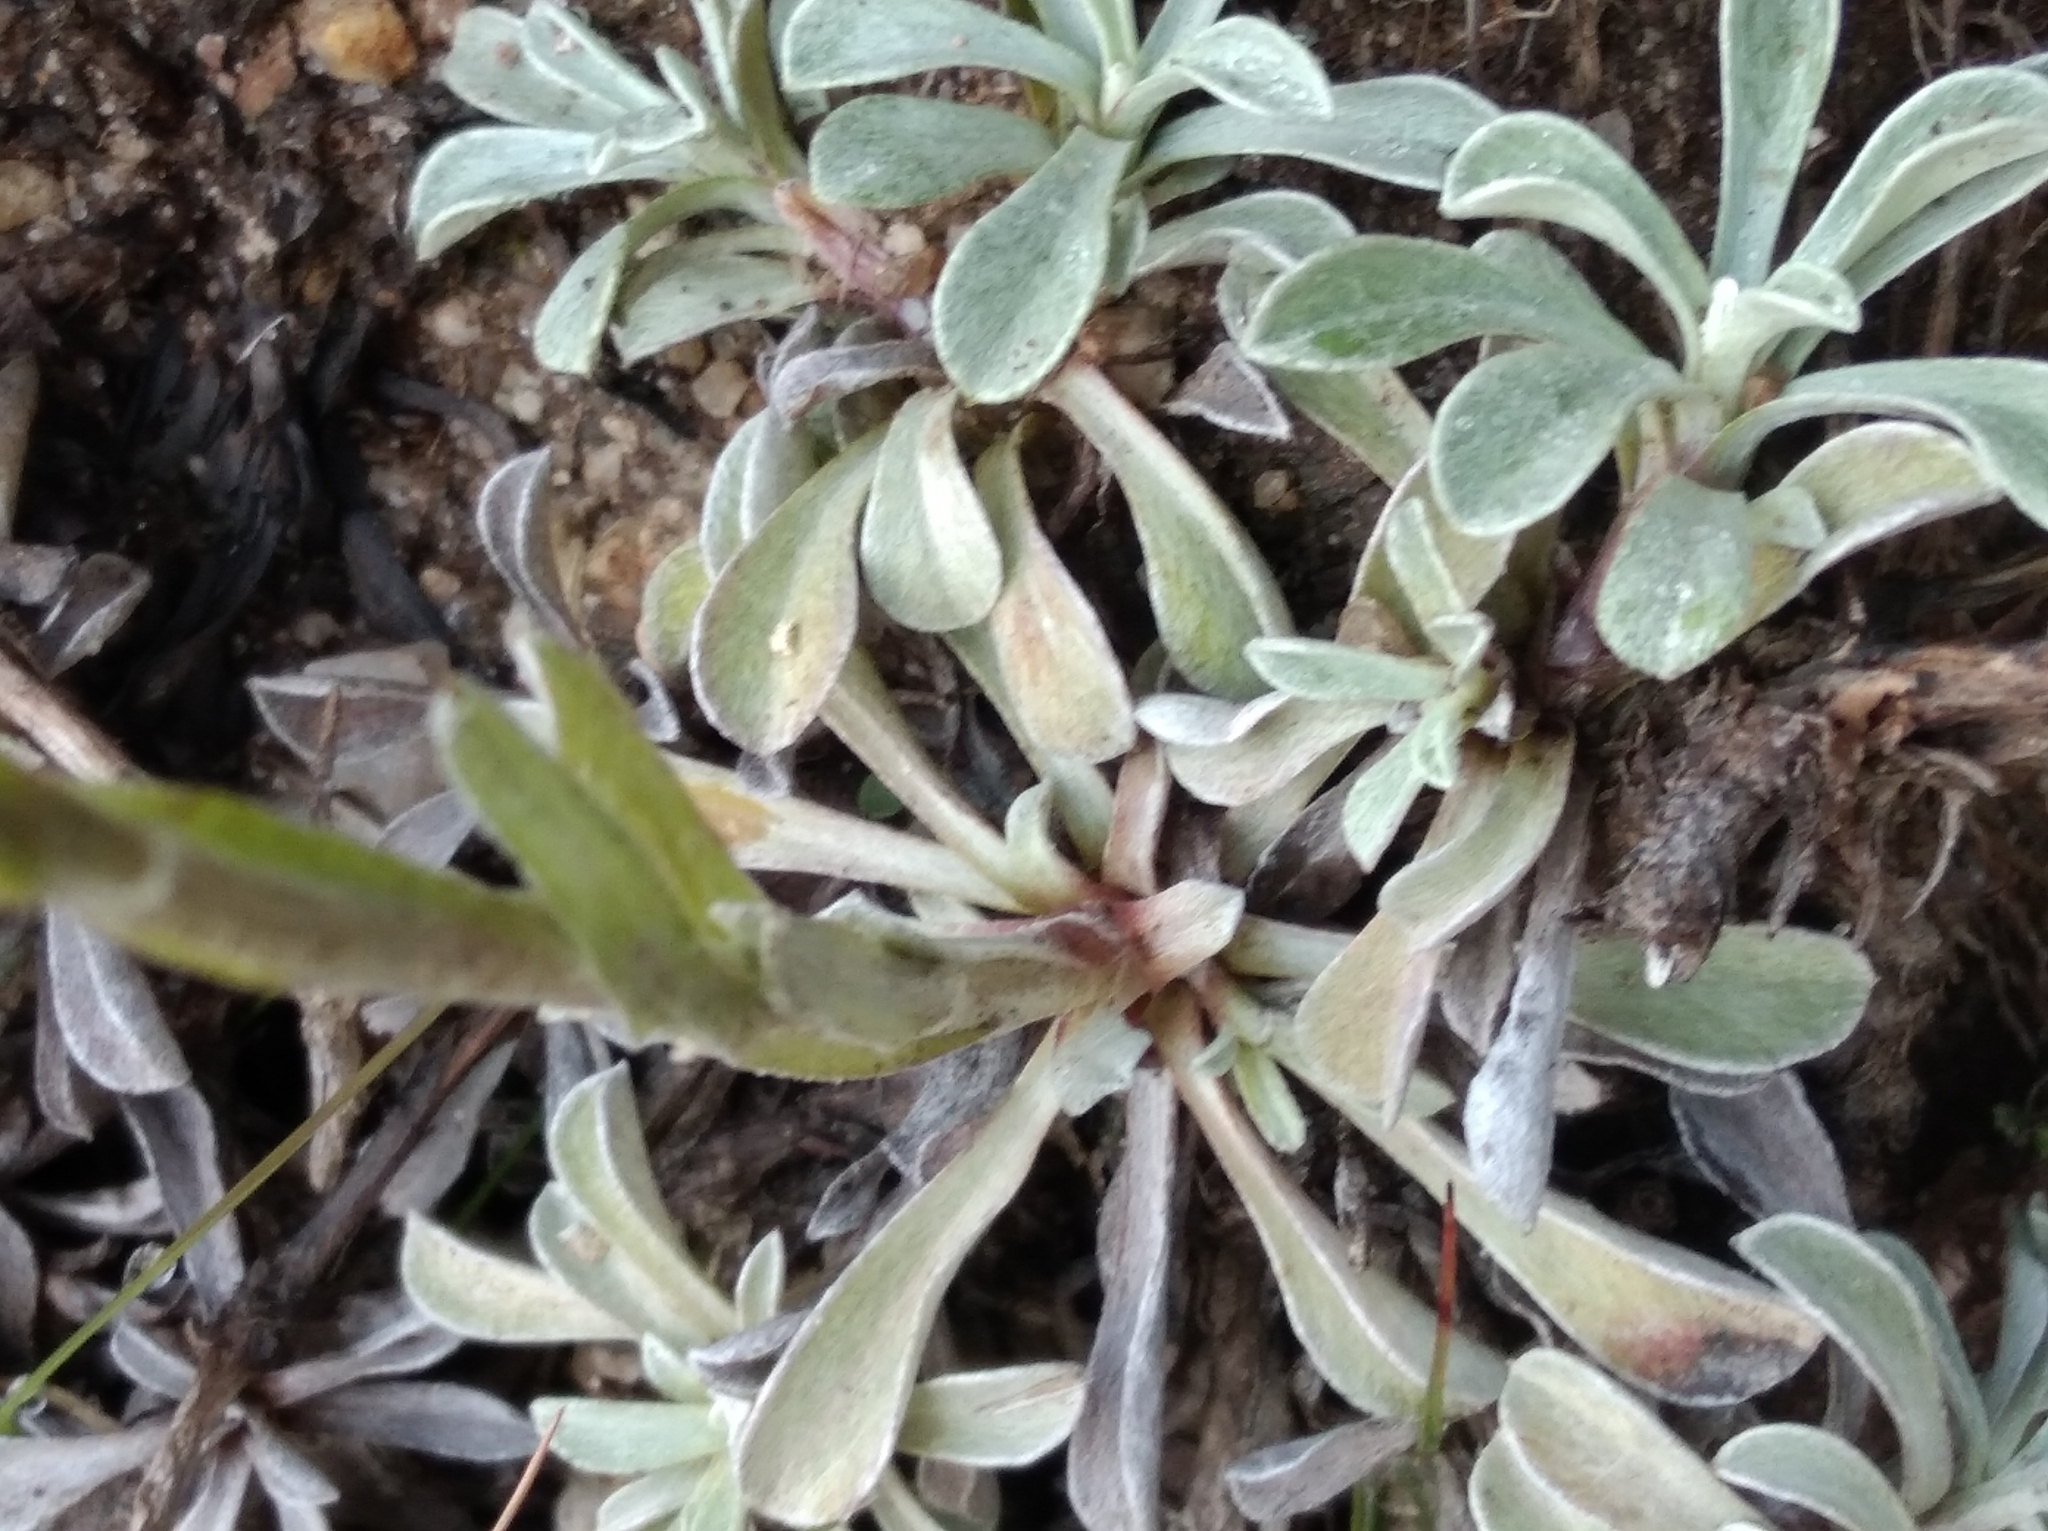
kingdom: Plantae
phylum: Tracheophyta
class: Magnoliopsida
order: Asterales
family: Asteraceae
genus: Antennaria
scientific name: Antennaria dioica
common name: Mountain everlasting
